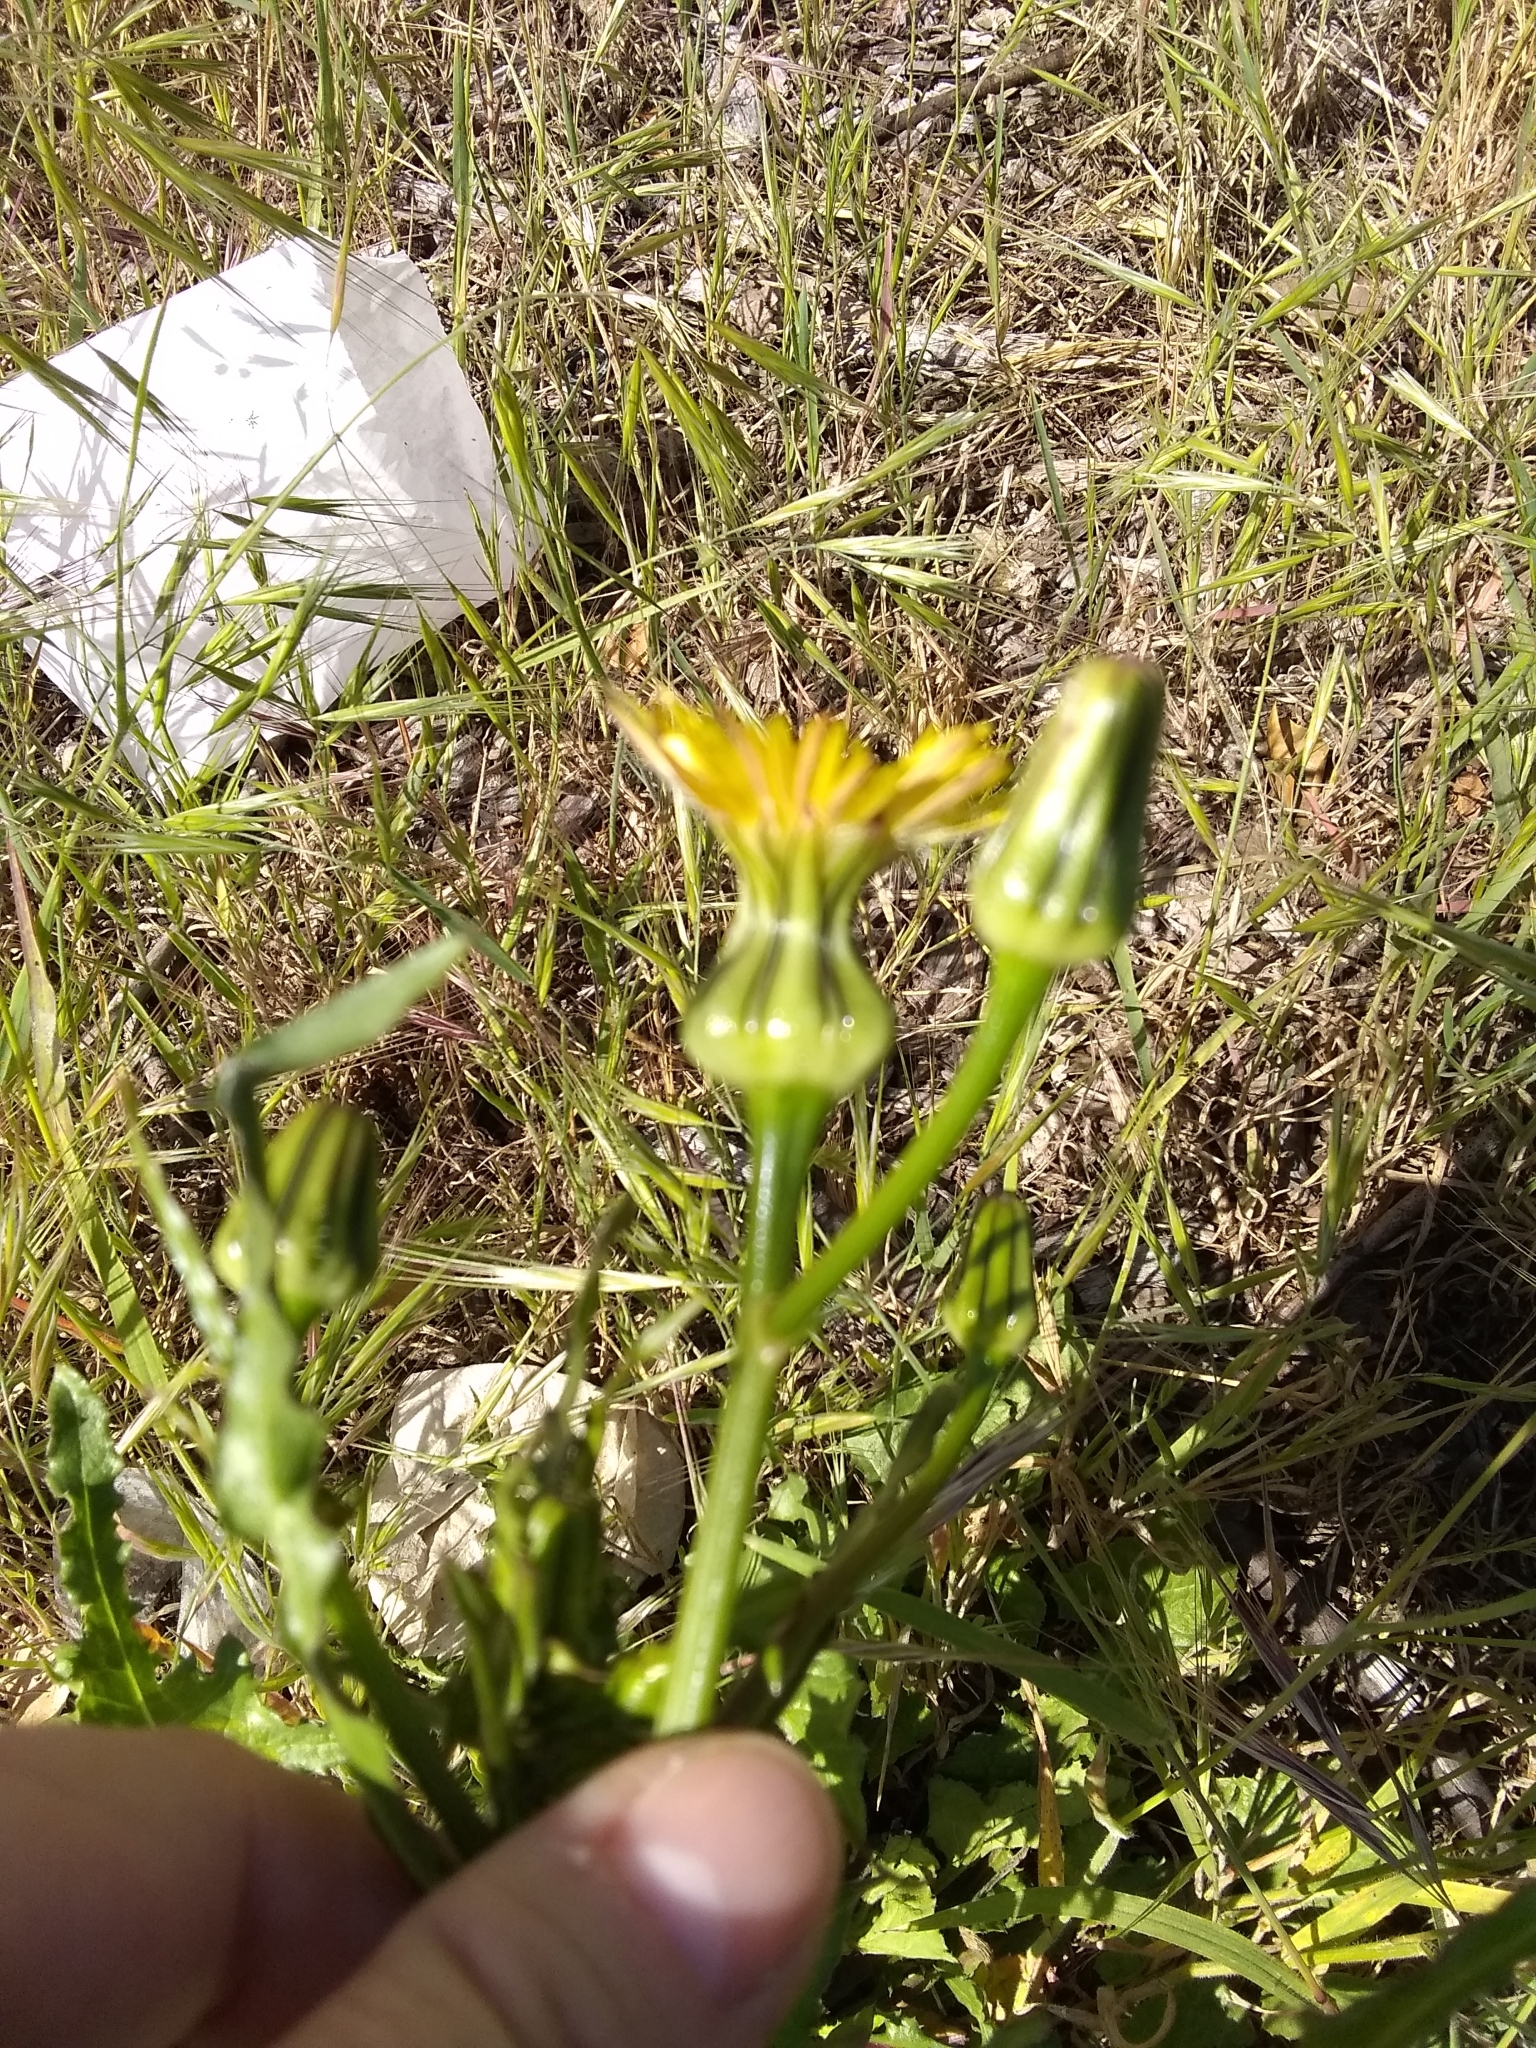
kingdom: Plantae
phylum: Tracheophyta
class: Magnoliopsida
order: Asterales
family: Asteraceae
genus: Urospermum
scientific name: Urospermum picroides
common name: False hawkbit
